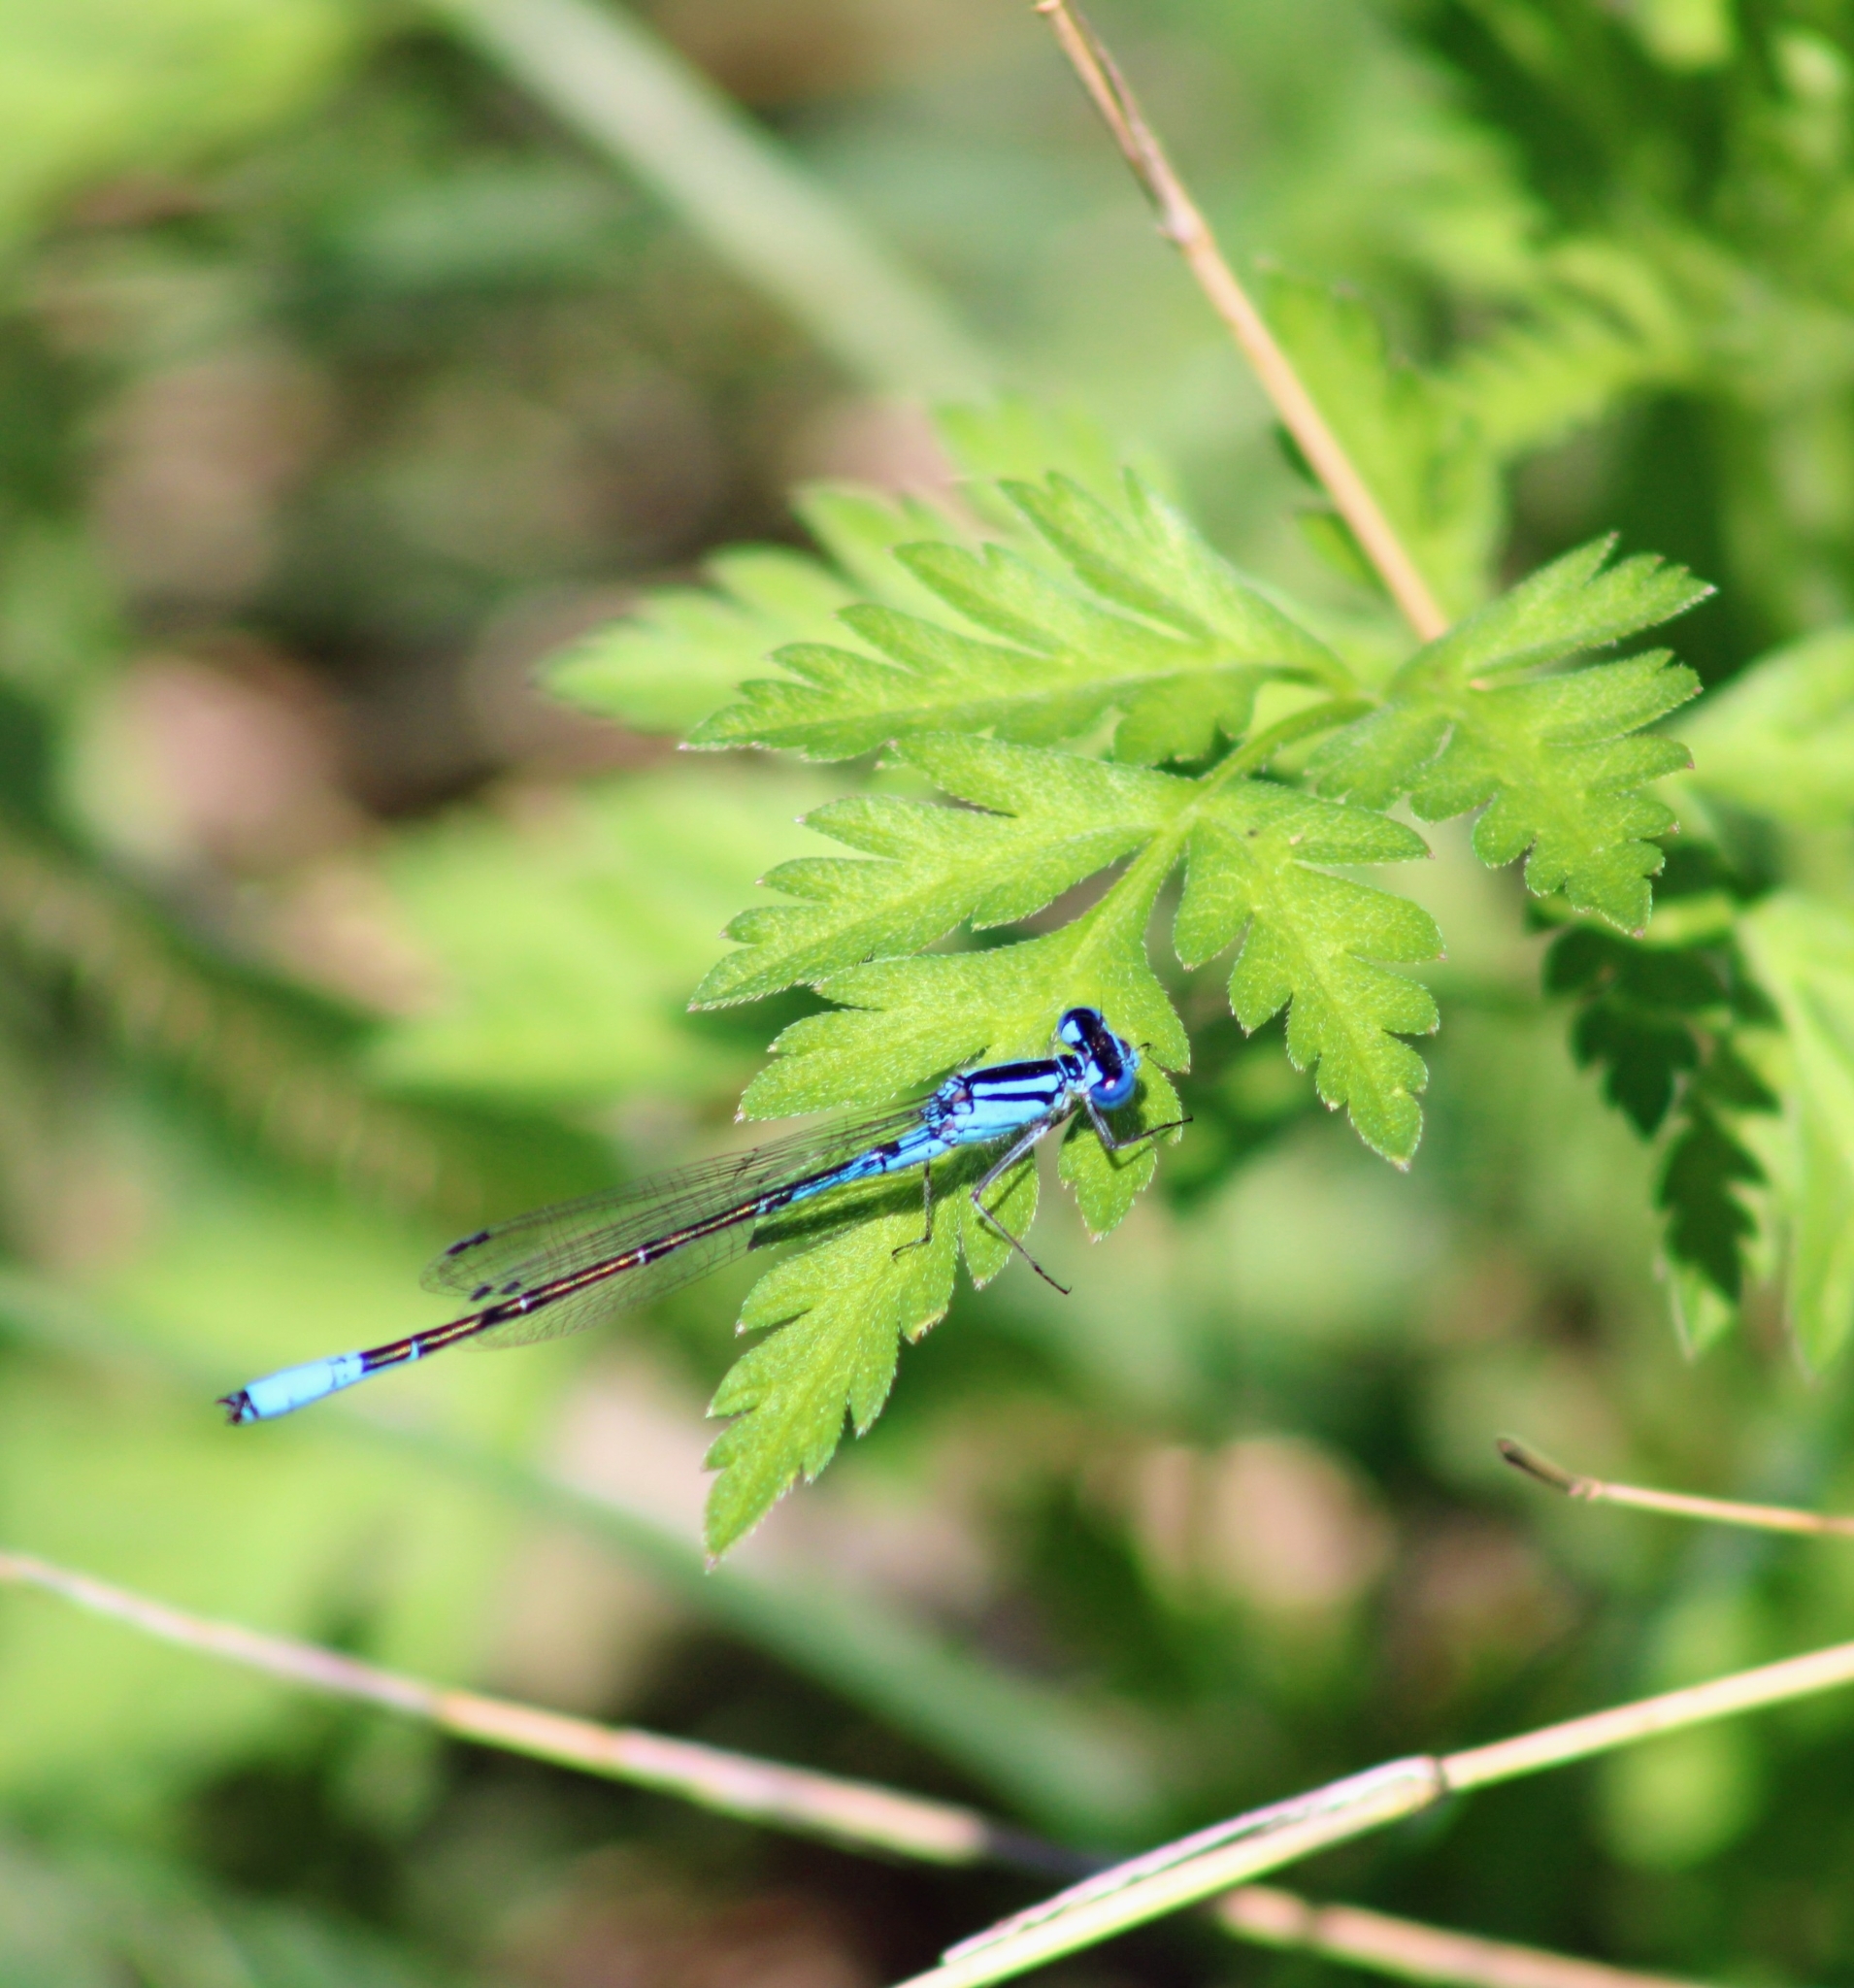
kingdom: Animalia
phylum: Arthropoda
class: Insecta
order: Odonata
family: Coenagrionidae
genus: Enallagma
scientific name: Enallagma aspersum
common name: Azure bluet
